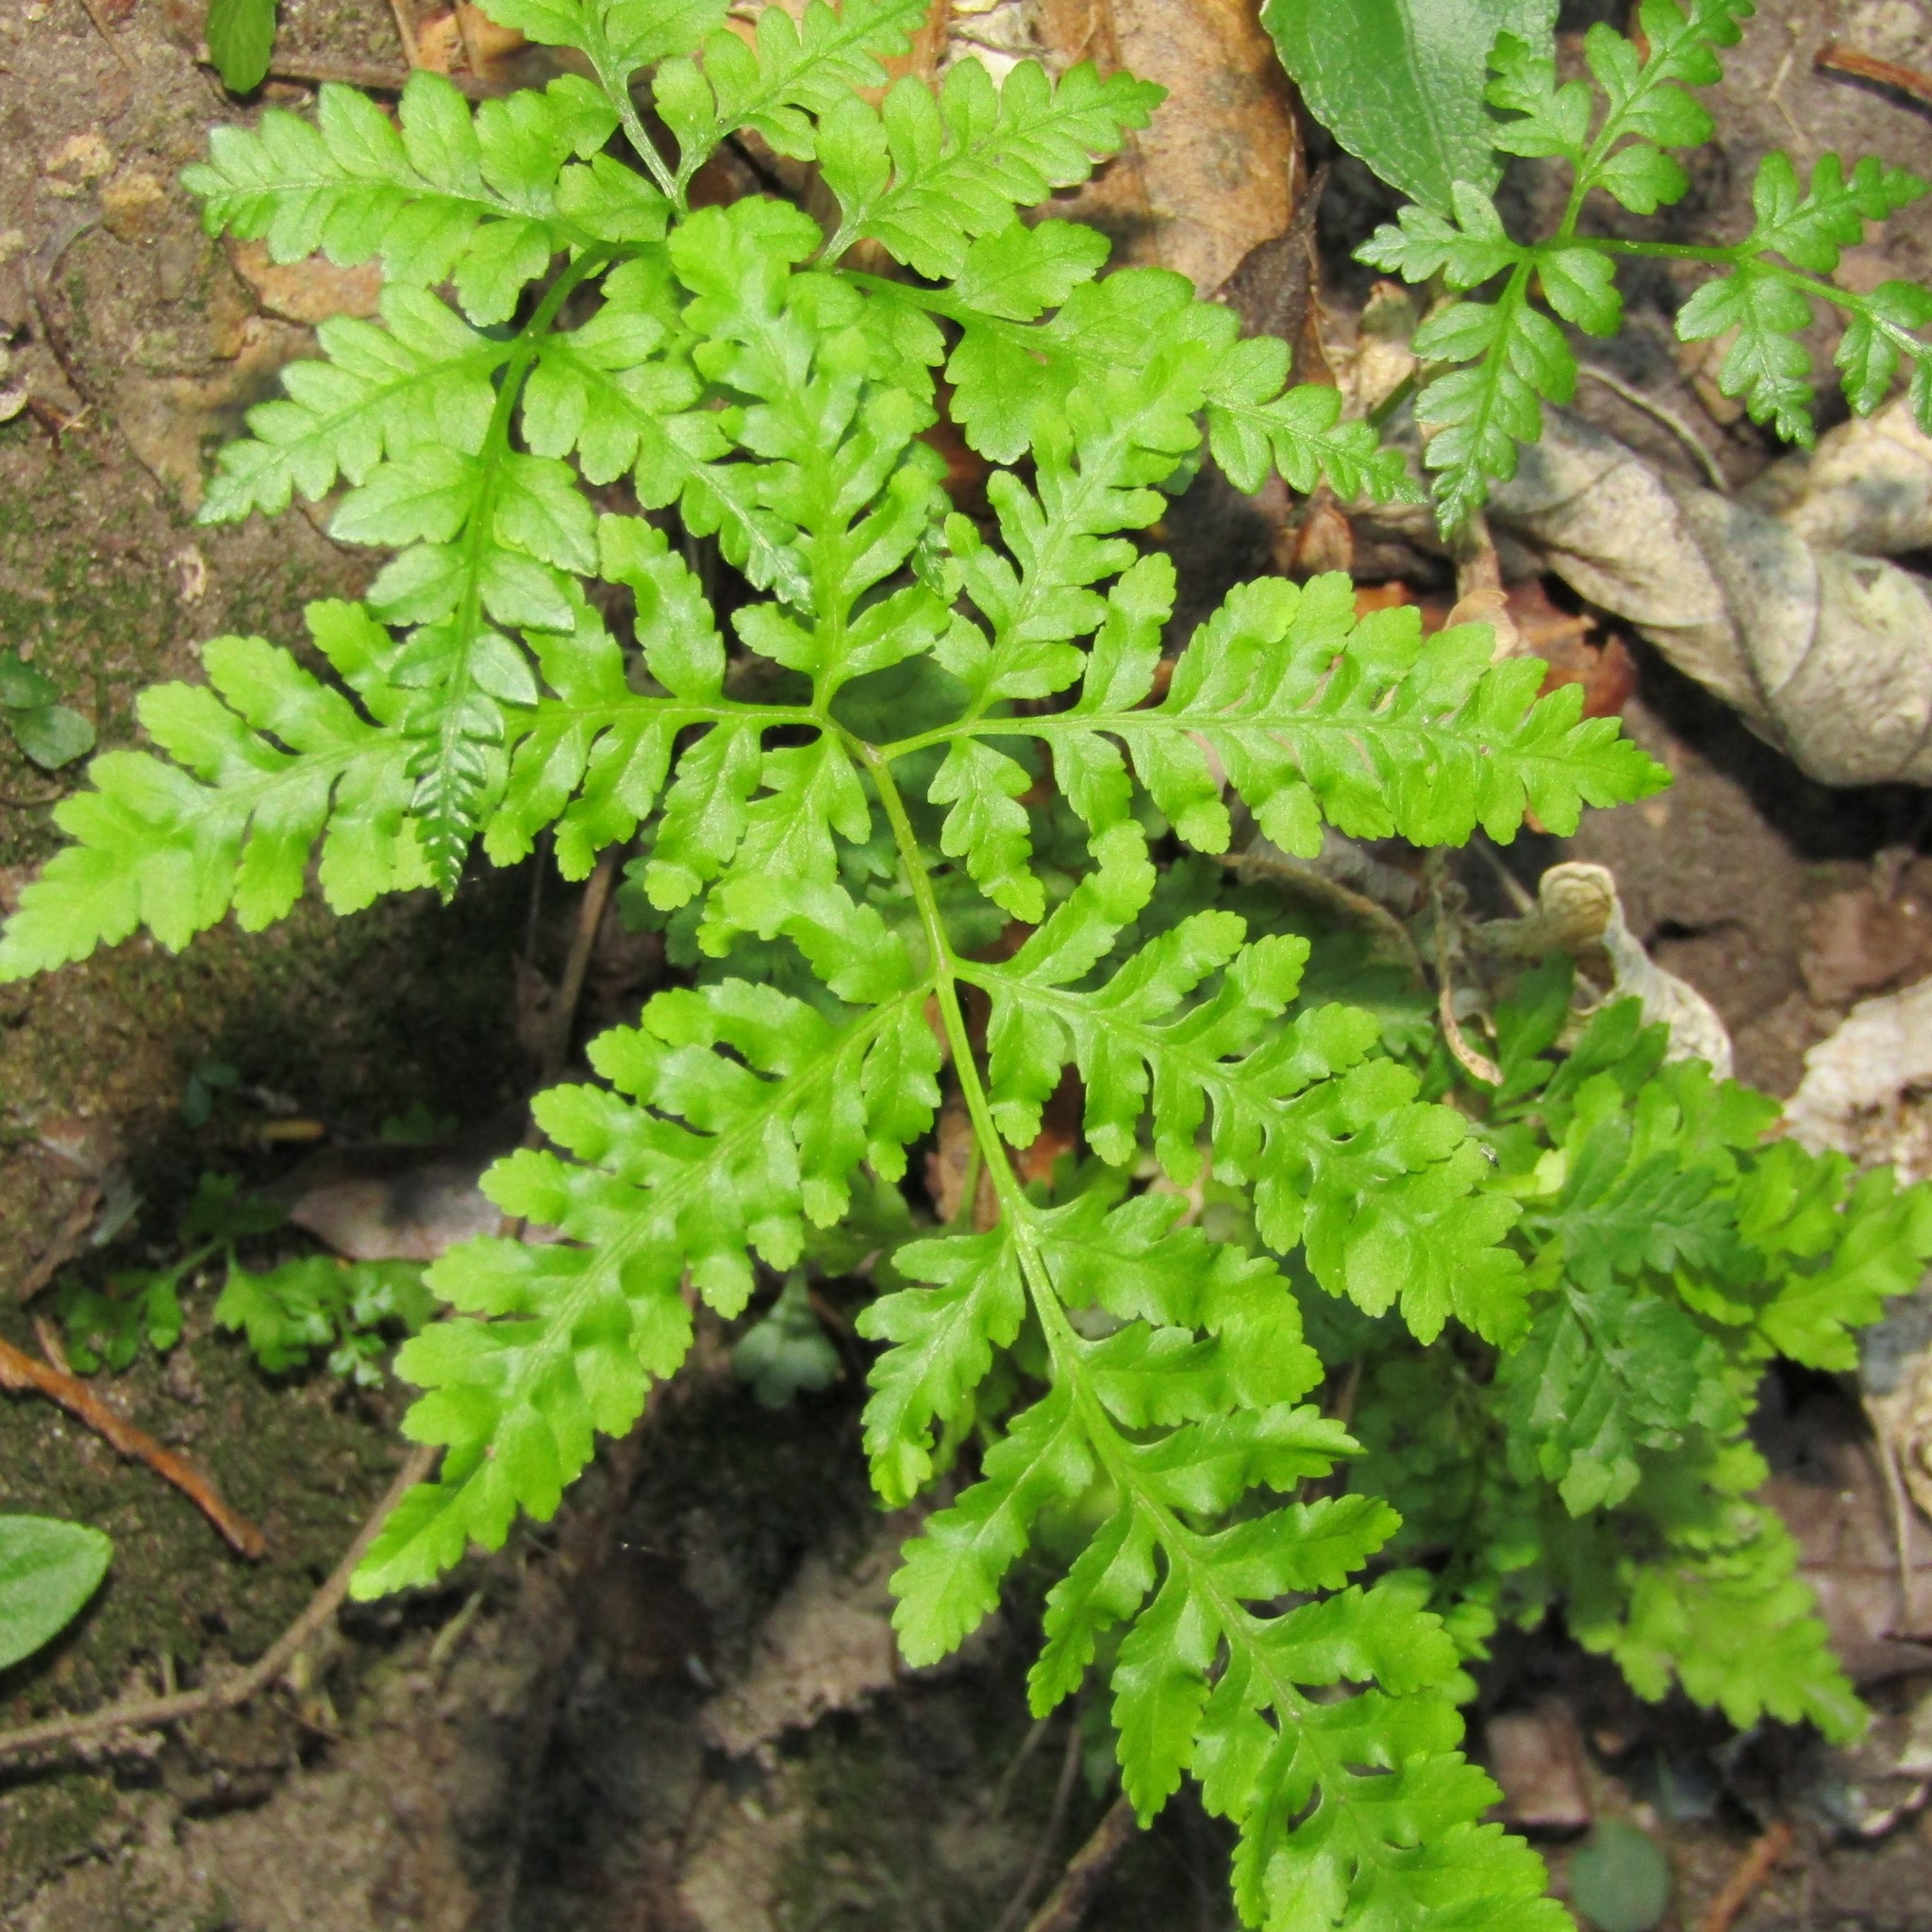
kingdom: Plantae
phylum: Tracheophyta
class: Polypodiopsida
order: Polypodiales
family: Pteridaceae
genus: Pteris
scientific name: Pteris tremula
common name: Australian brake
